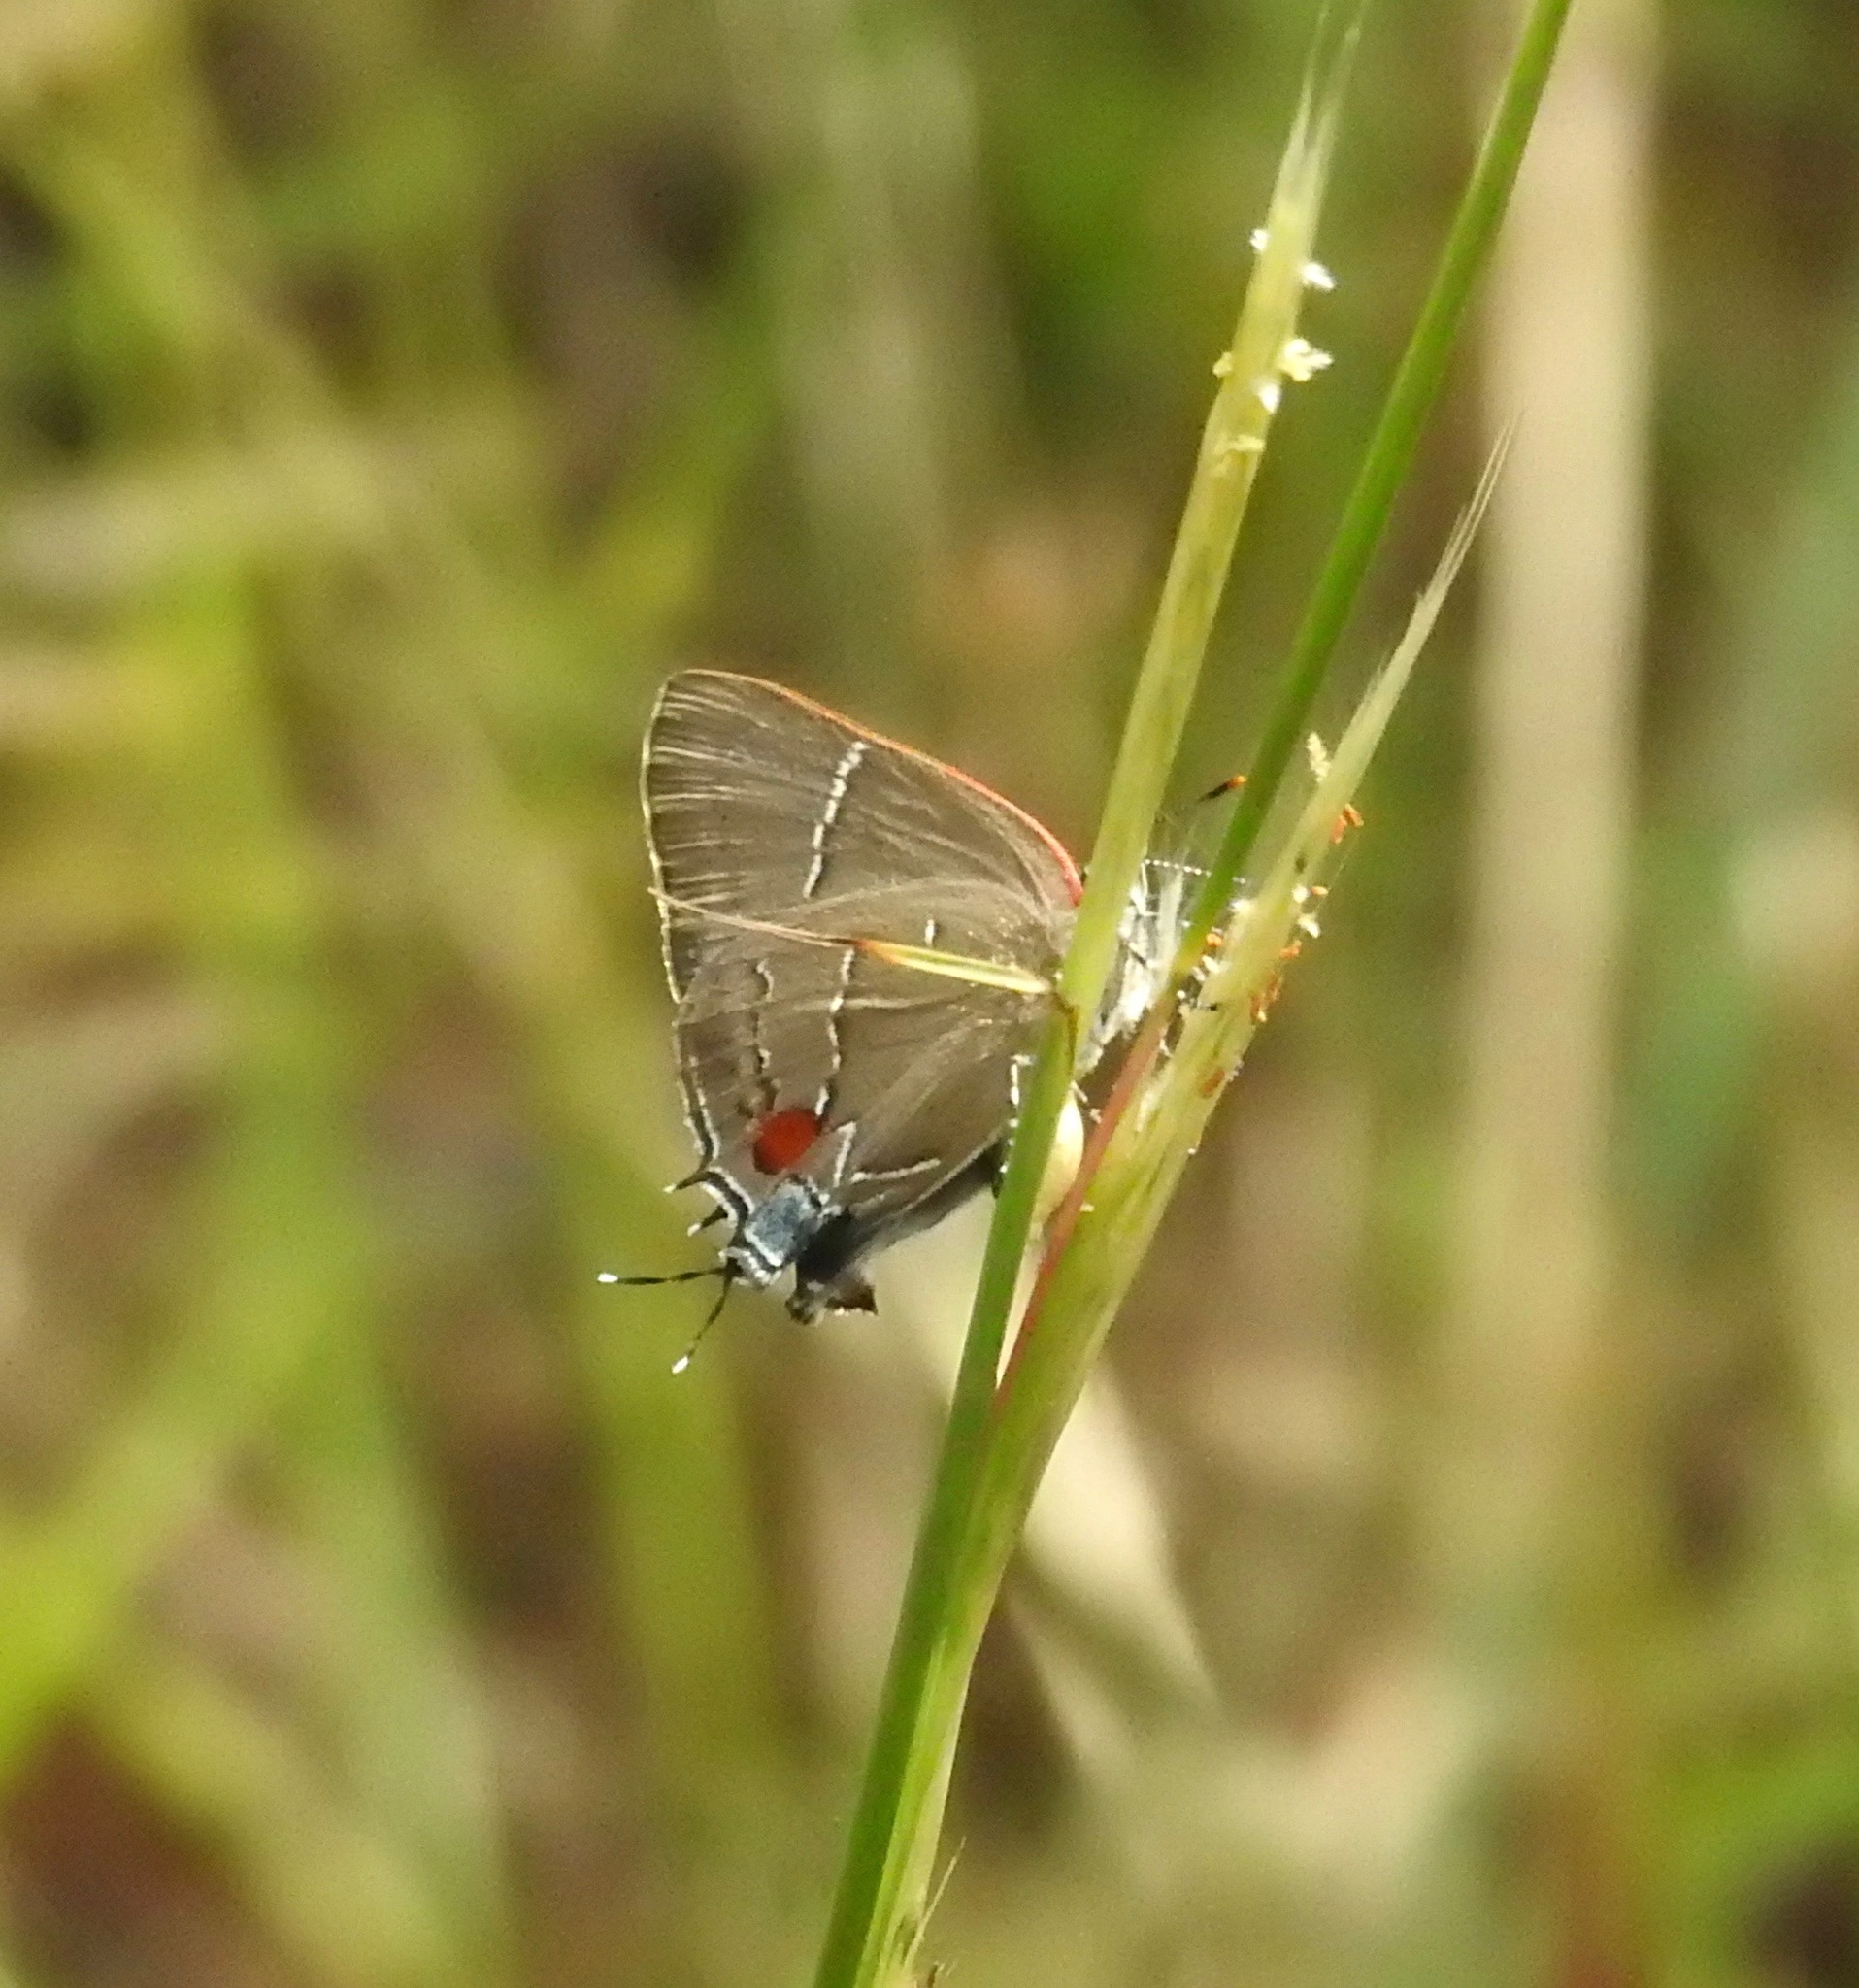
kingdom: Animalia
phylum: Arthropoda
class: Insecta
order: Lepidoptera
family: Lycaenidae
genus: Parrhasius
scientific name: Parrhasius m-album
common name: White m hairstreak
